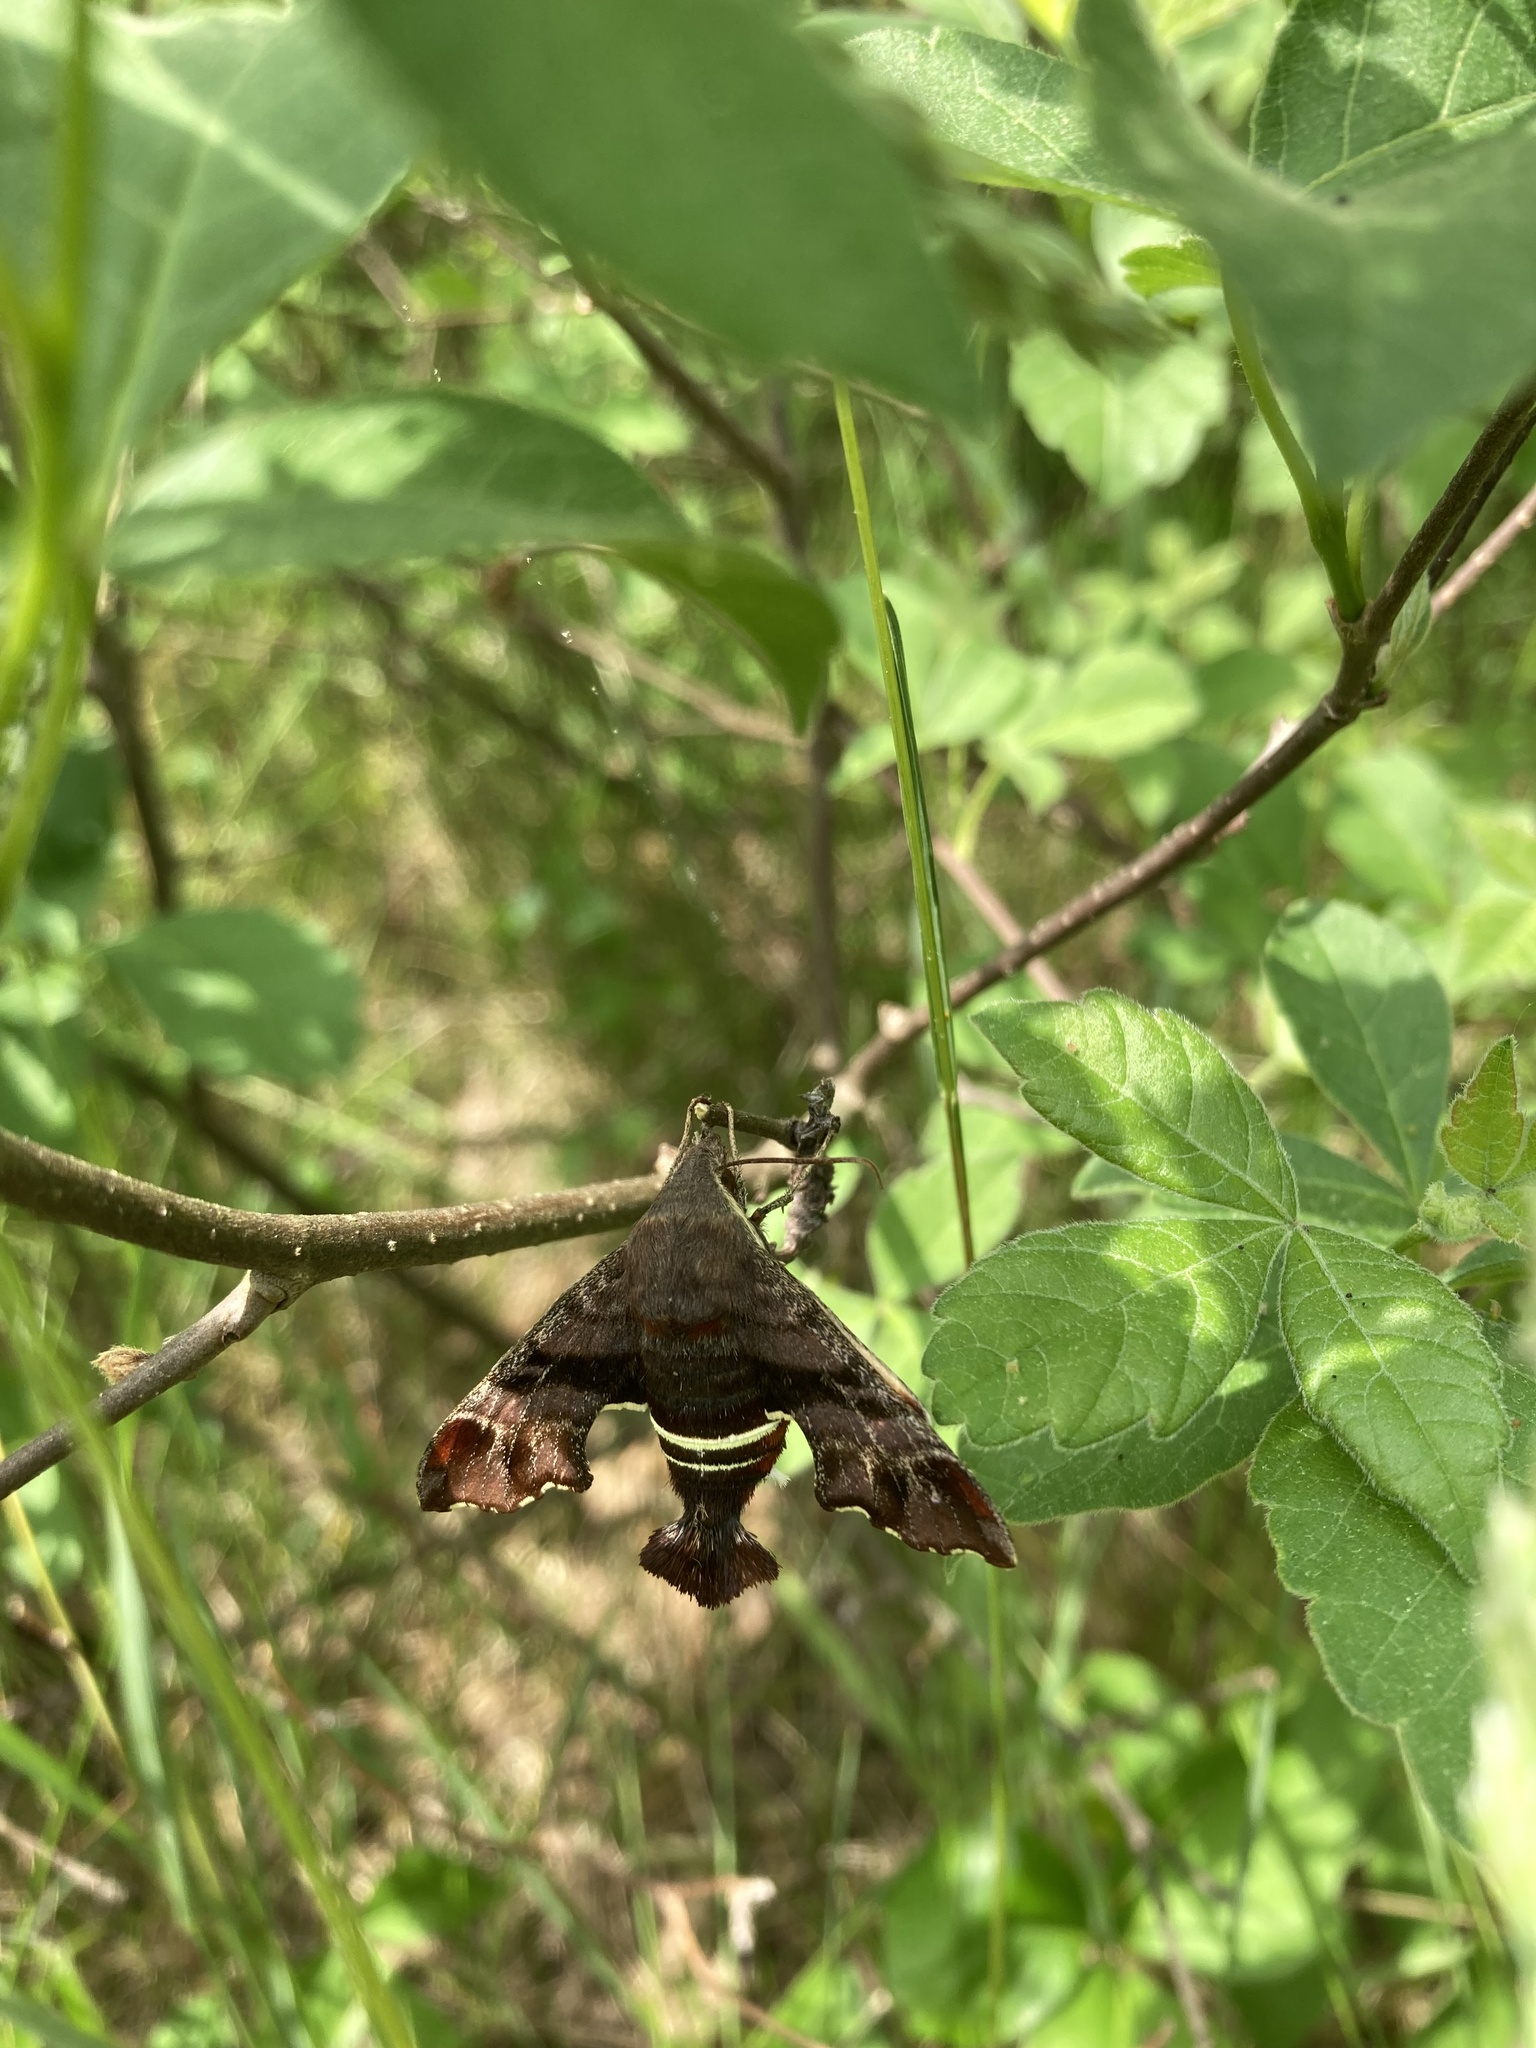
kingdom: Animalia
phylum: Arthropoda
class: Insecta
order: Lepidoptera
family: Sphingidae
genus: Amphion
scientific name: Amphion floridensis
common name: Nessus sphinx
